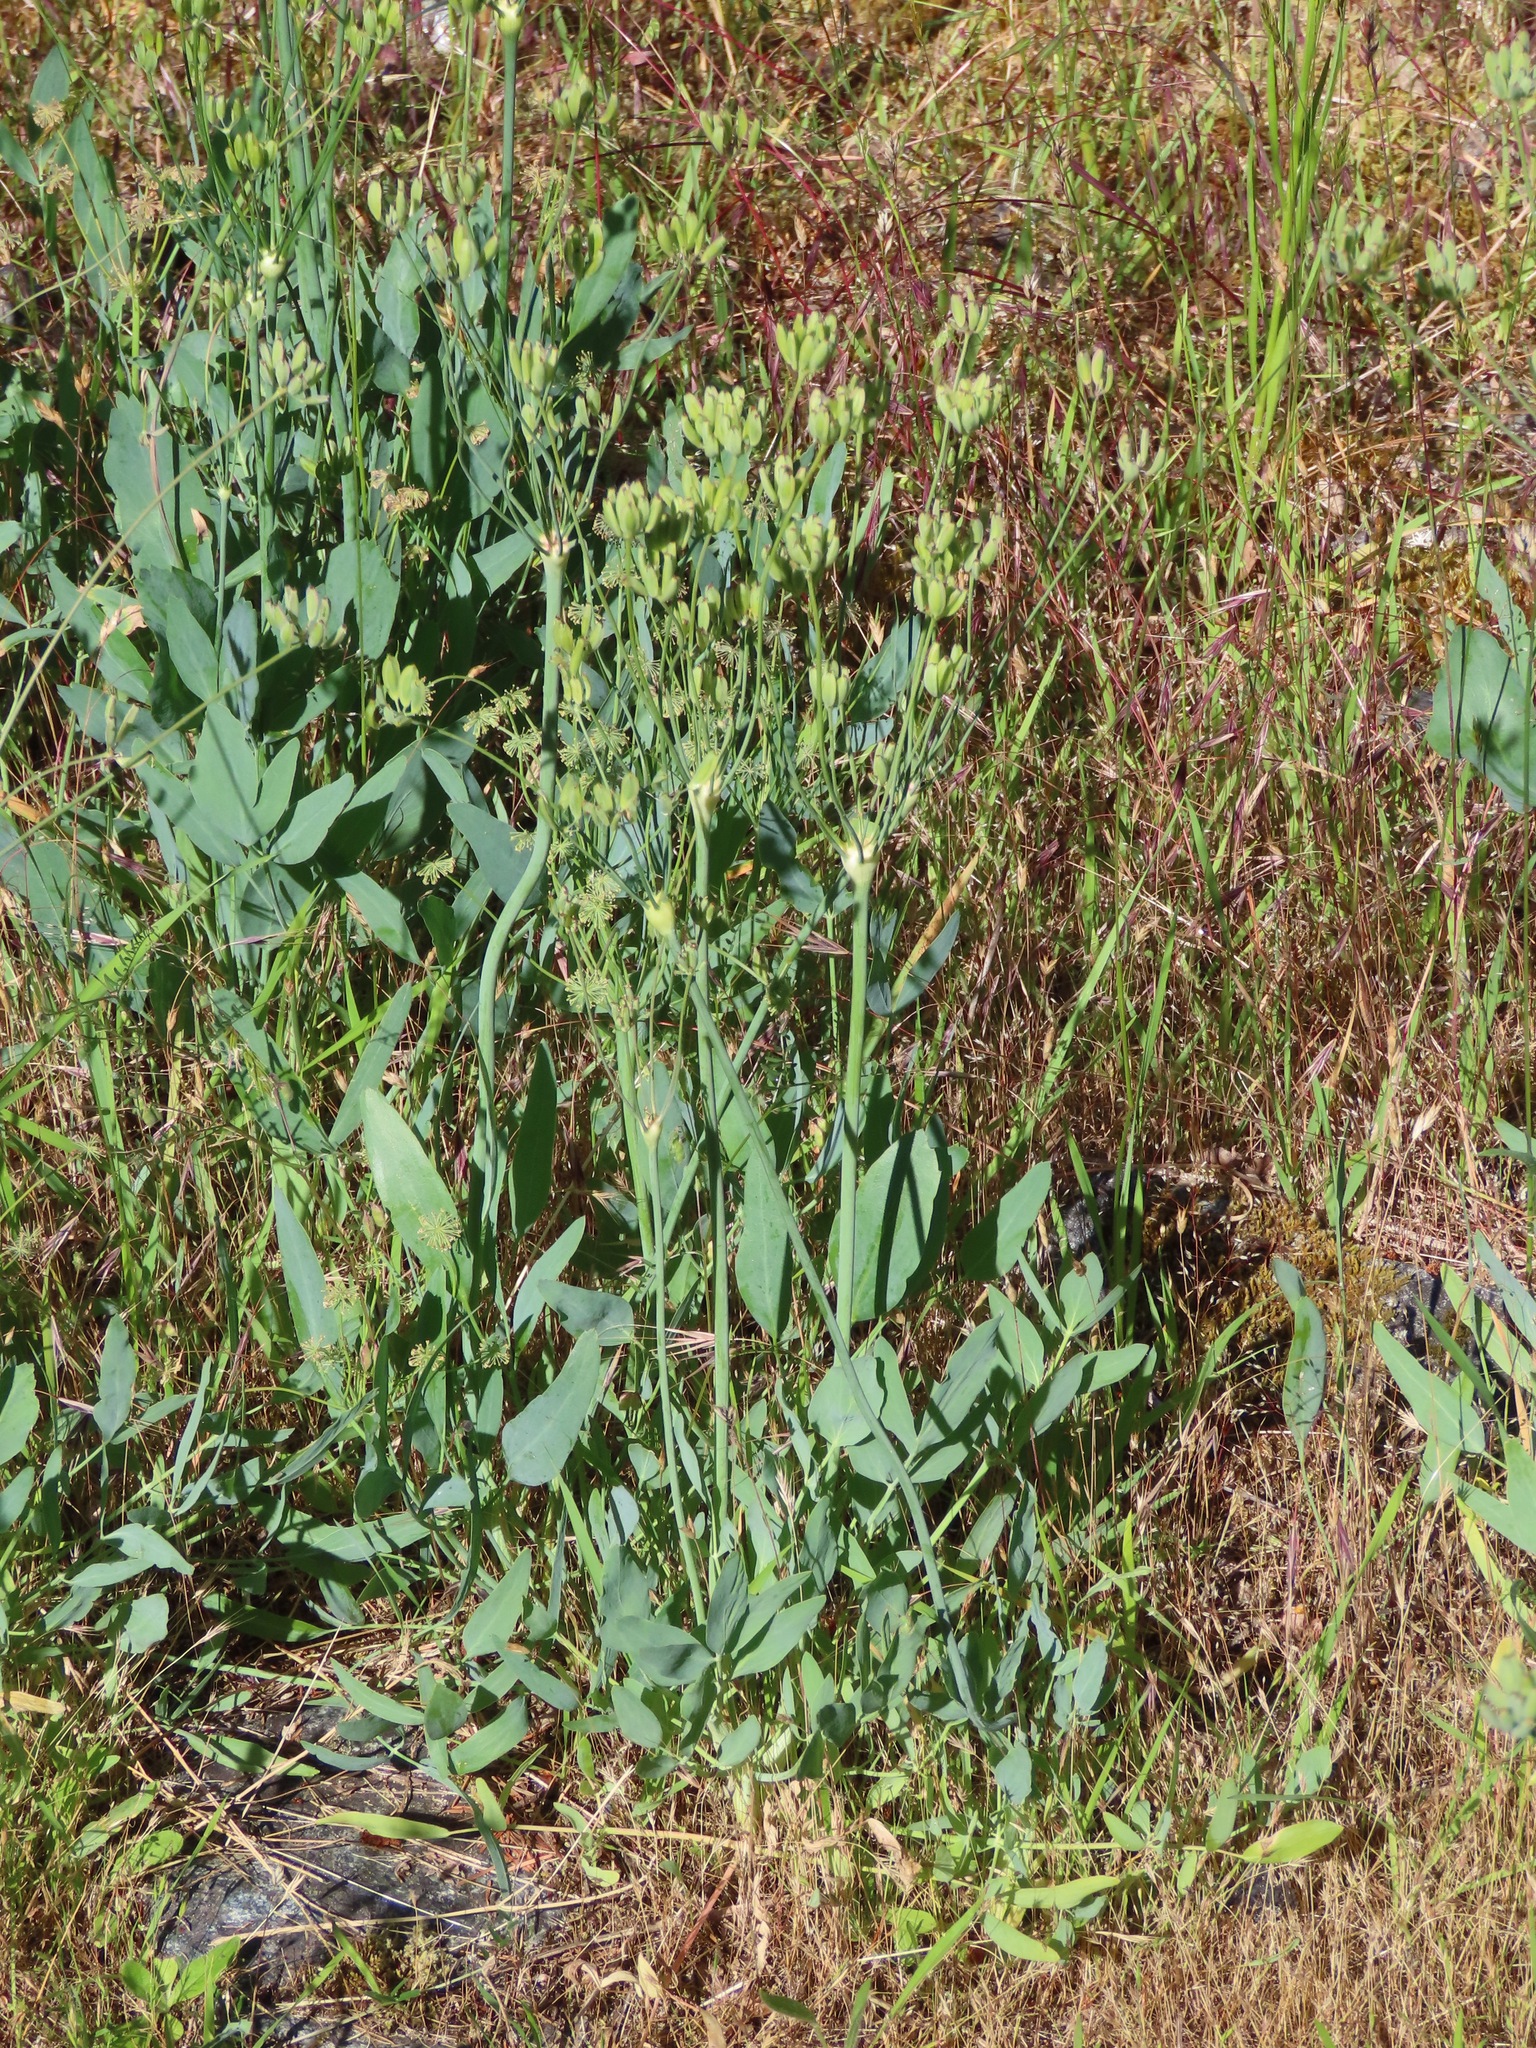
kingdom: Plantae
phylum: Tracheophyta
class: Magnoliopsida
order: Apiales
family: Apiaceae
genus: Lomatium
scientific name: Lomatium nudicaule
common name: Pestle lomatium
